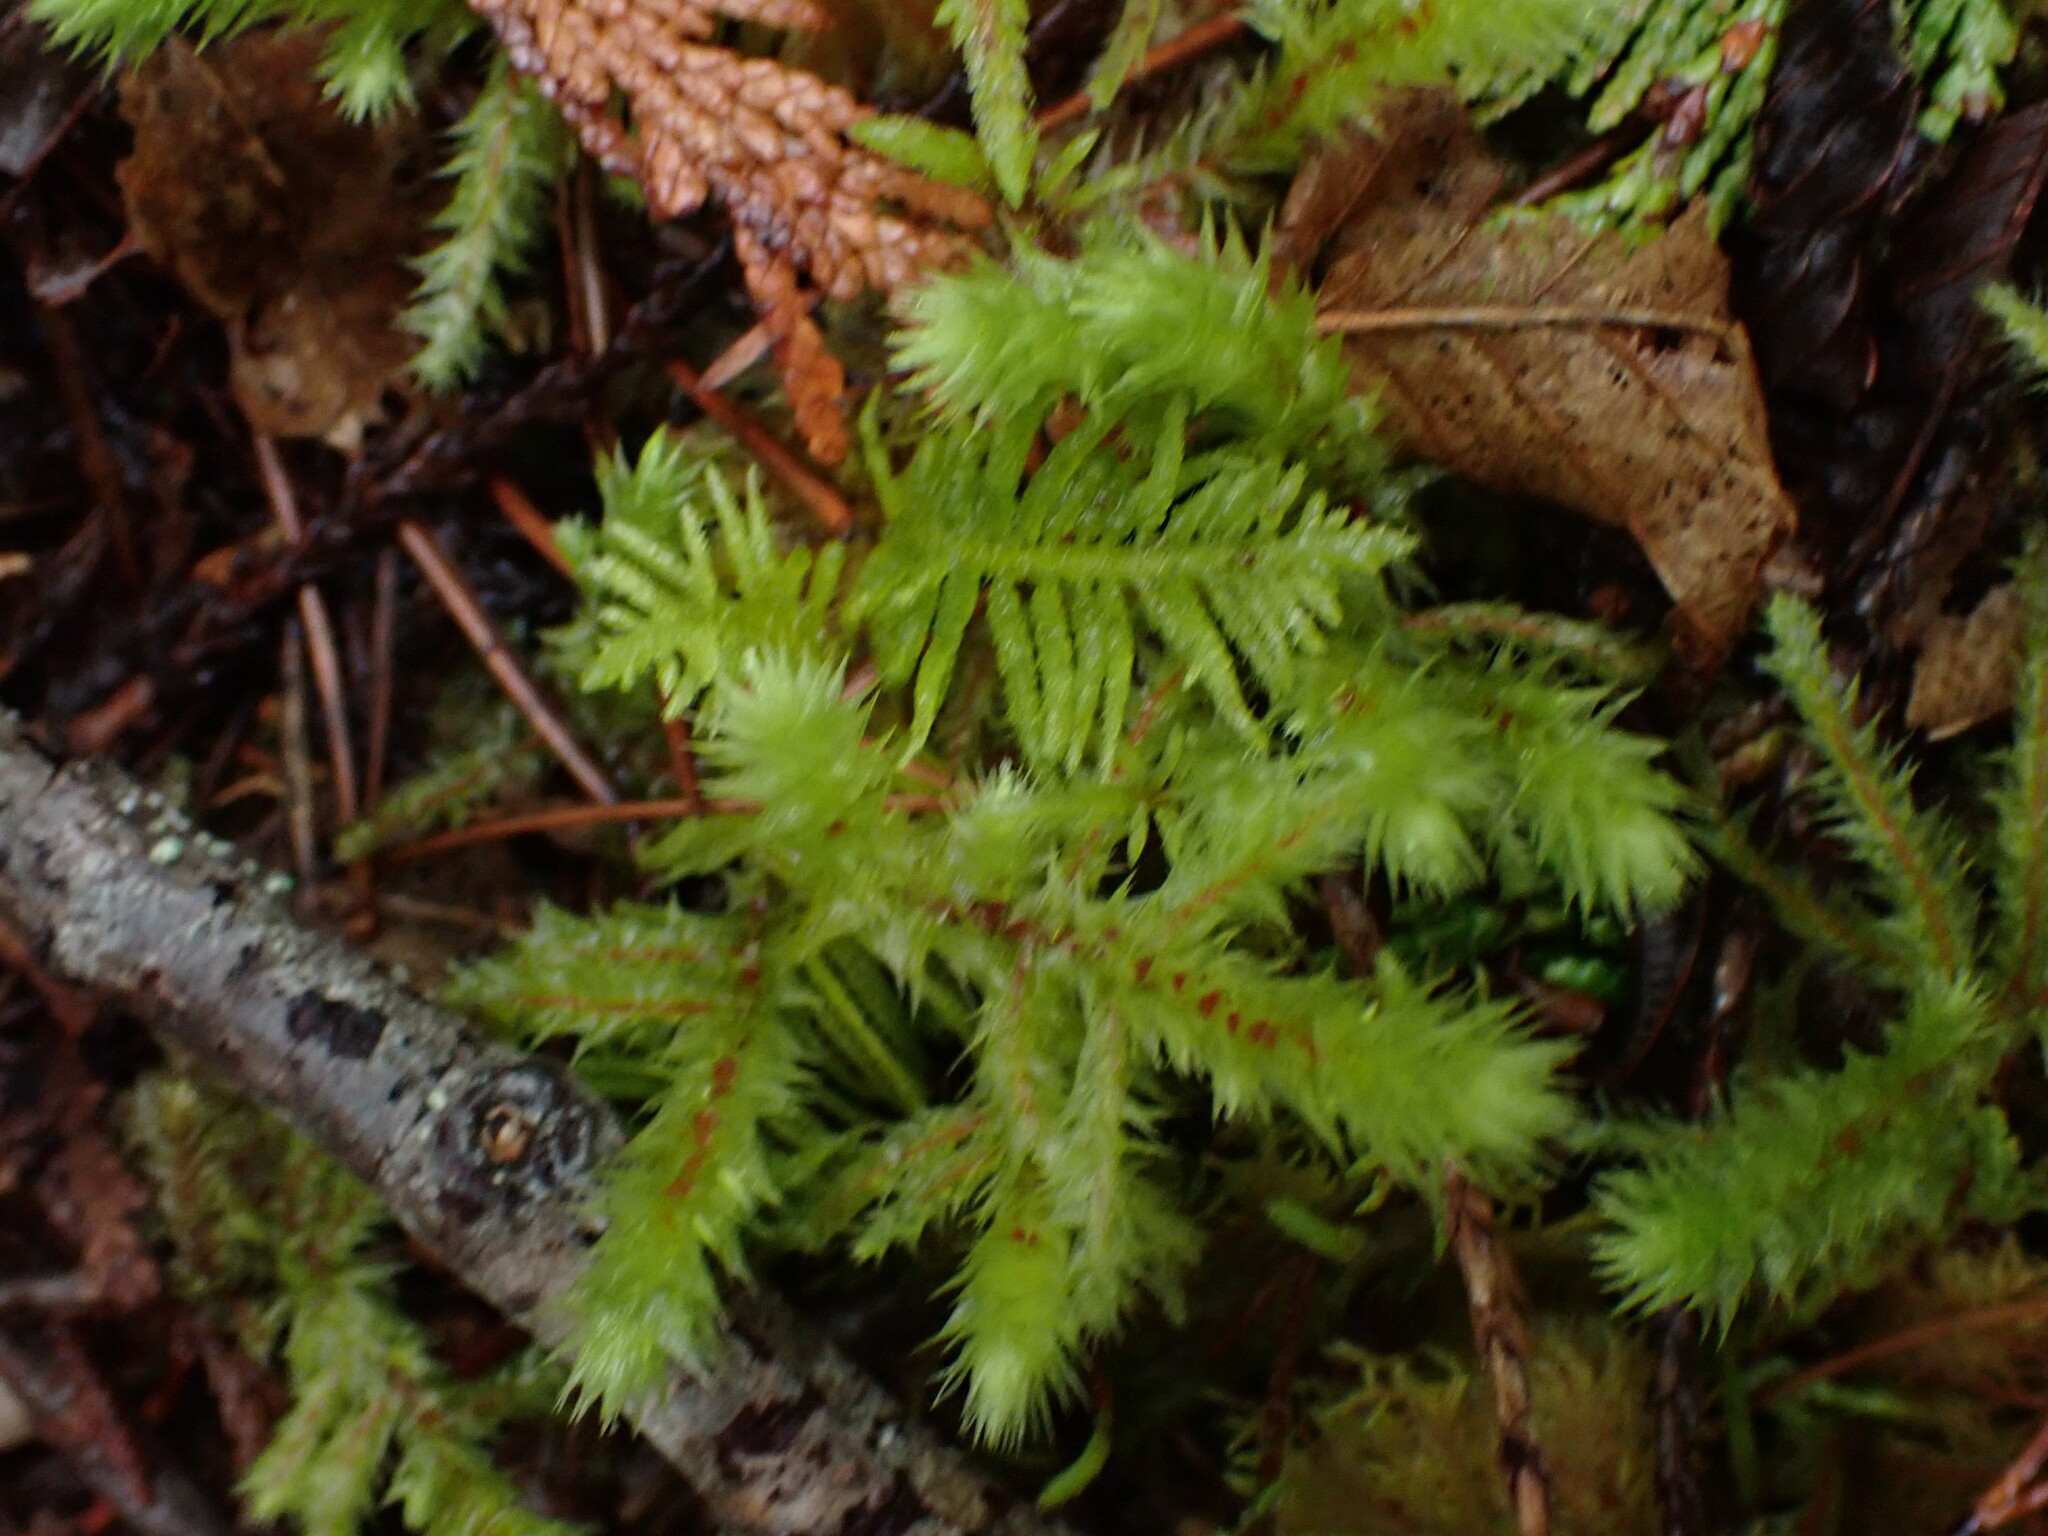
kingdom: Plantae
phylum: Bryophyta
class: Bryopsida
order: Hypnales
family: Hylocomiaceae
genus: Hylocomiadelphus
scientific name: Hylocomiadelphus triquetrus
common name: Rough goose neck moss
